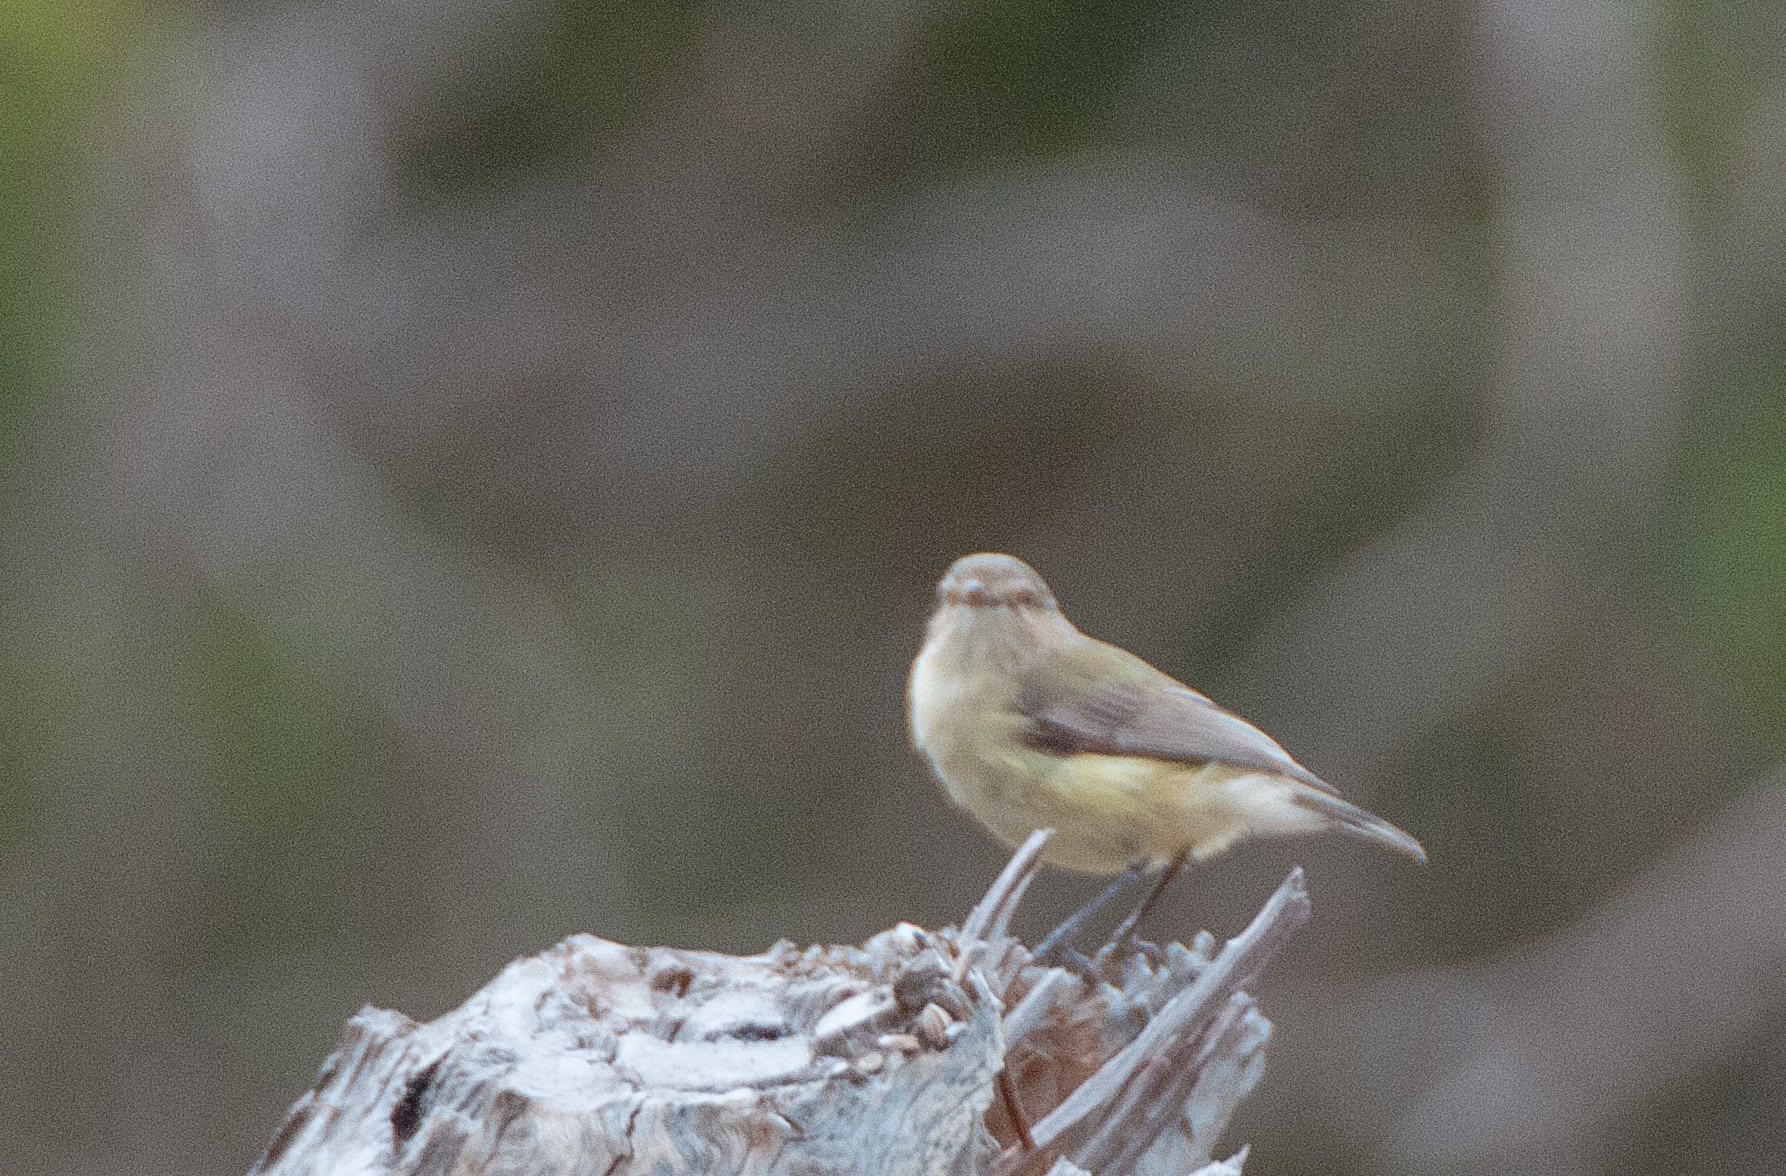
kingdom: Animalia
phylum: Chordata
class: Aves
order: Passeriformes
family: Acanthizidae
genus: Smicrornis
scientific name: Smicrornis brevirostris
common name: Weebill
